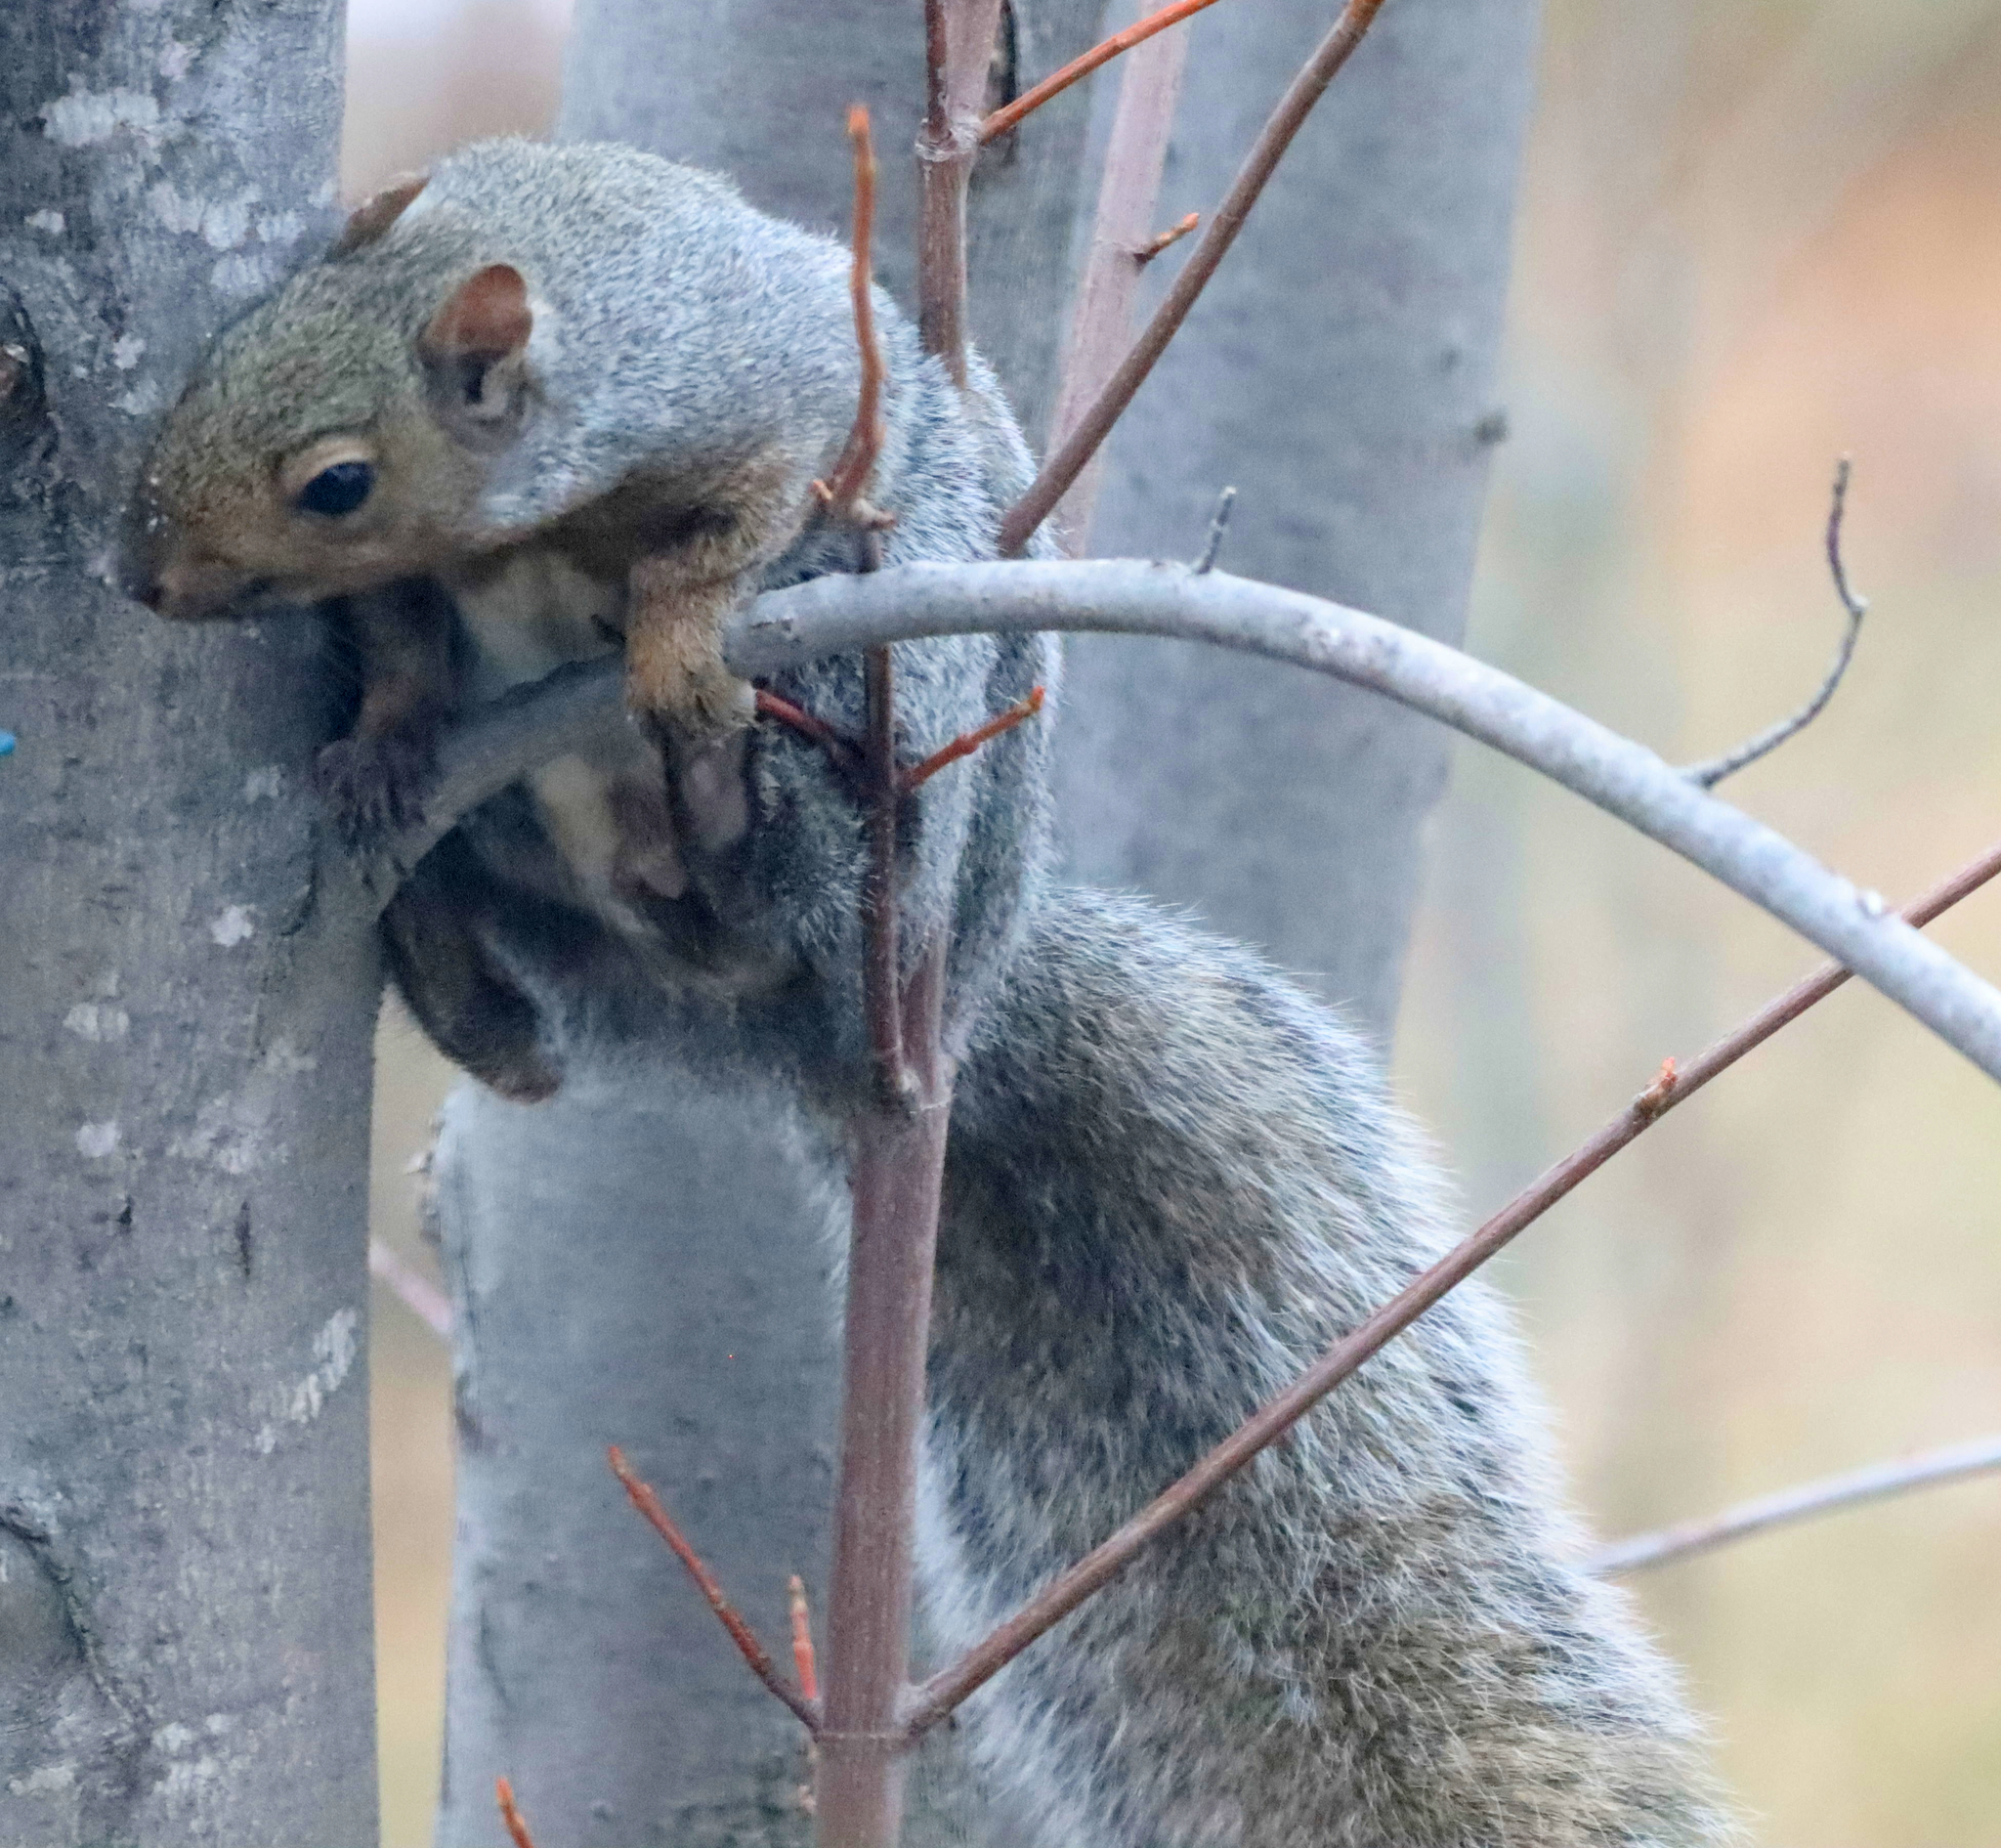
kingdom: Animalia
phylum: Chordata
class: Mammalia
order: Rodentia
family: Sciuridae
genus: Sciurus
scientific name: Sciurus carolinensis
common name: Eastern gray squirrel
